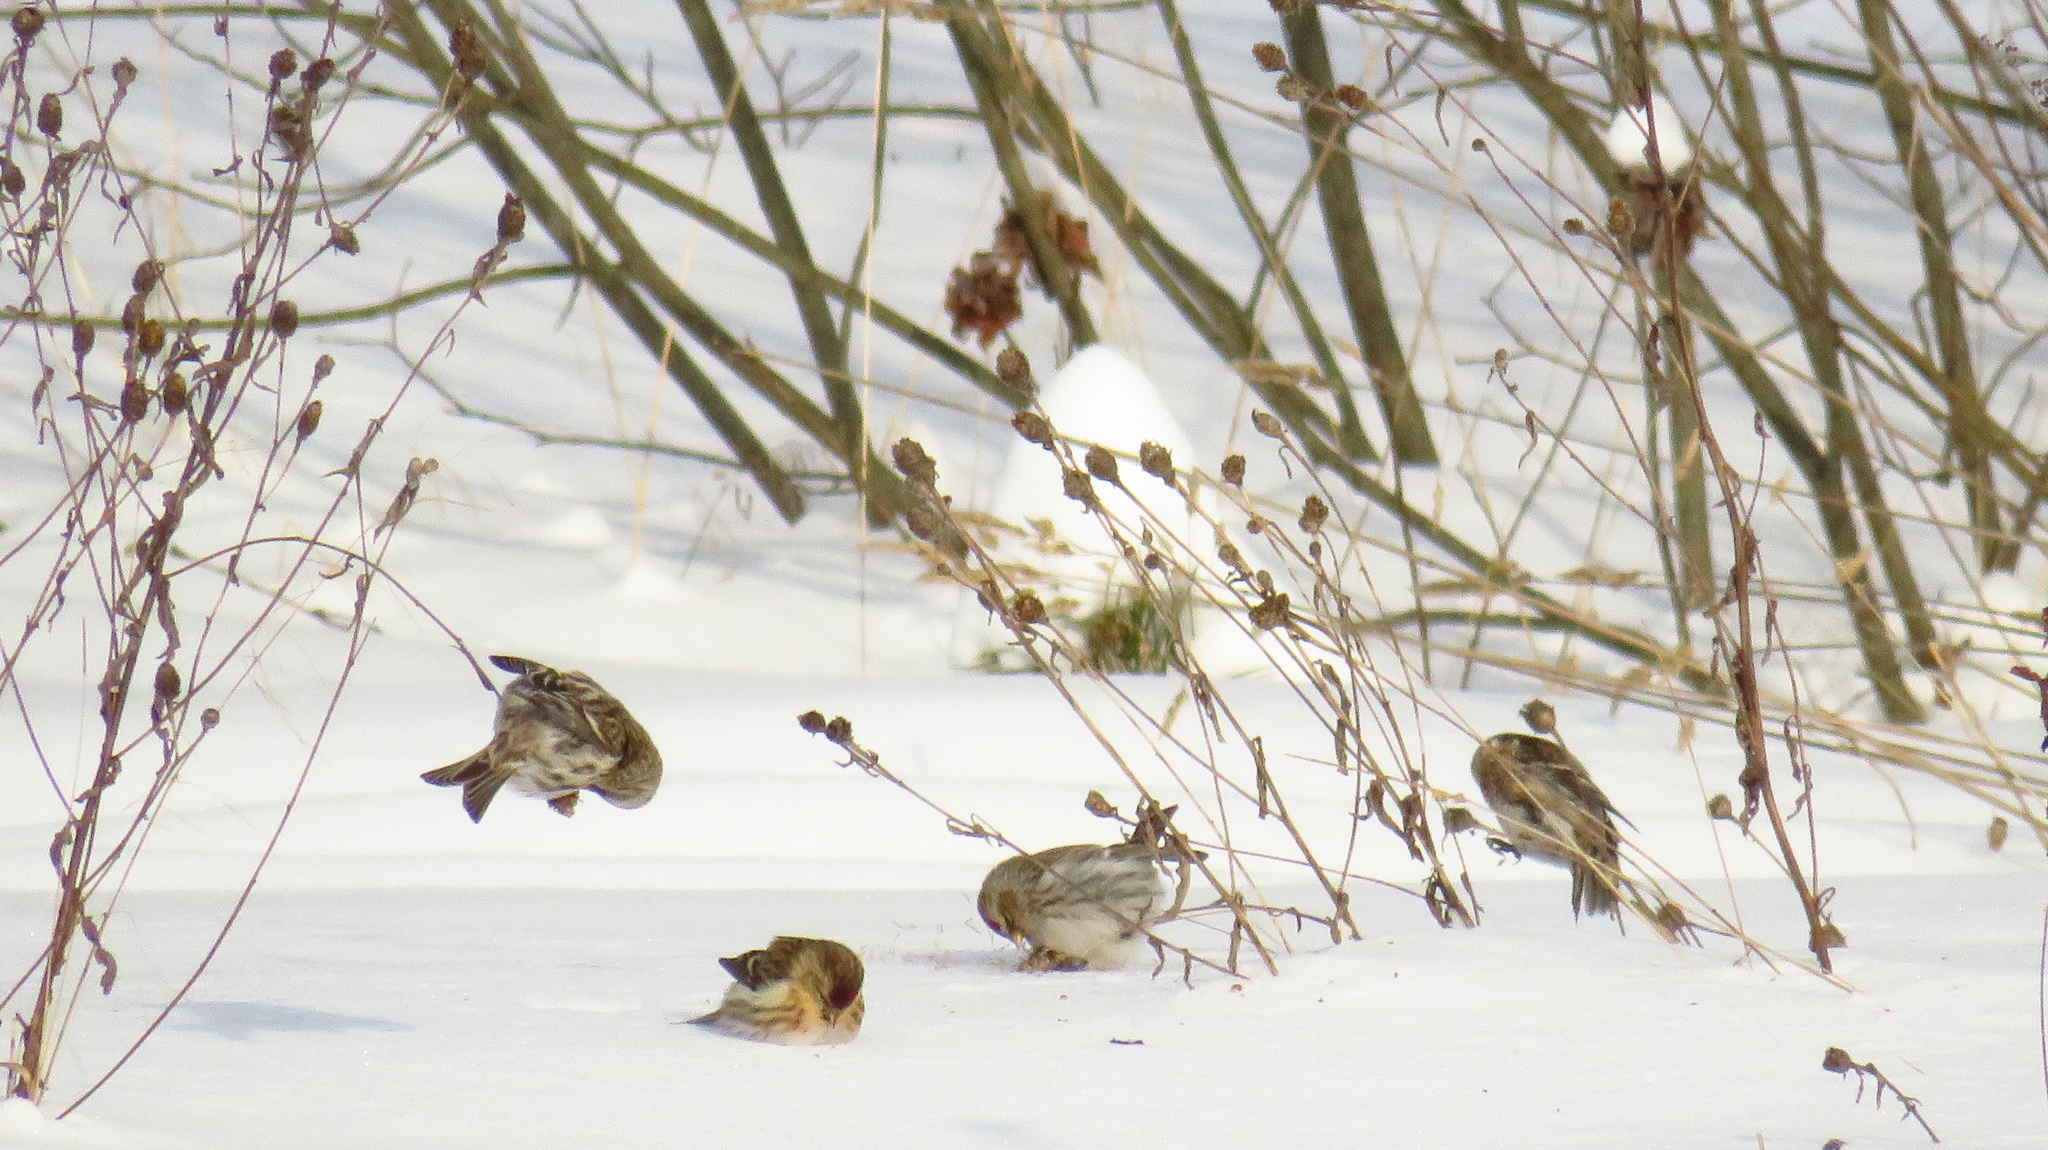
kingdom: Animalia
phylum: Chordata
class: Aves
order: Passeriformes
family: Fringillidae
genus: Acanthis
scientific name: Acanthis flammea
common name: Common redpoll
